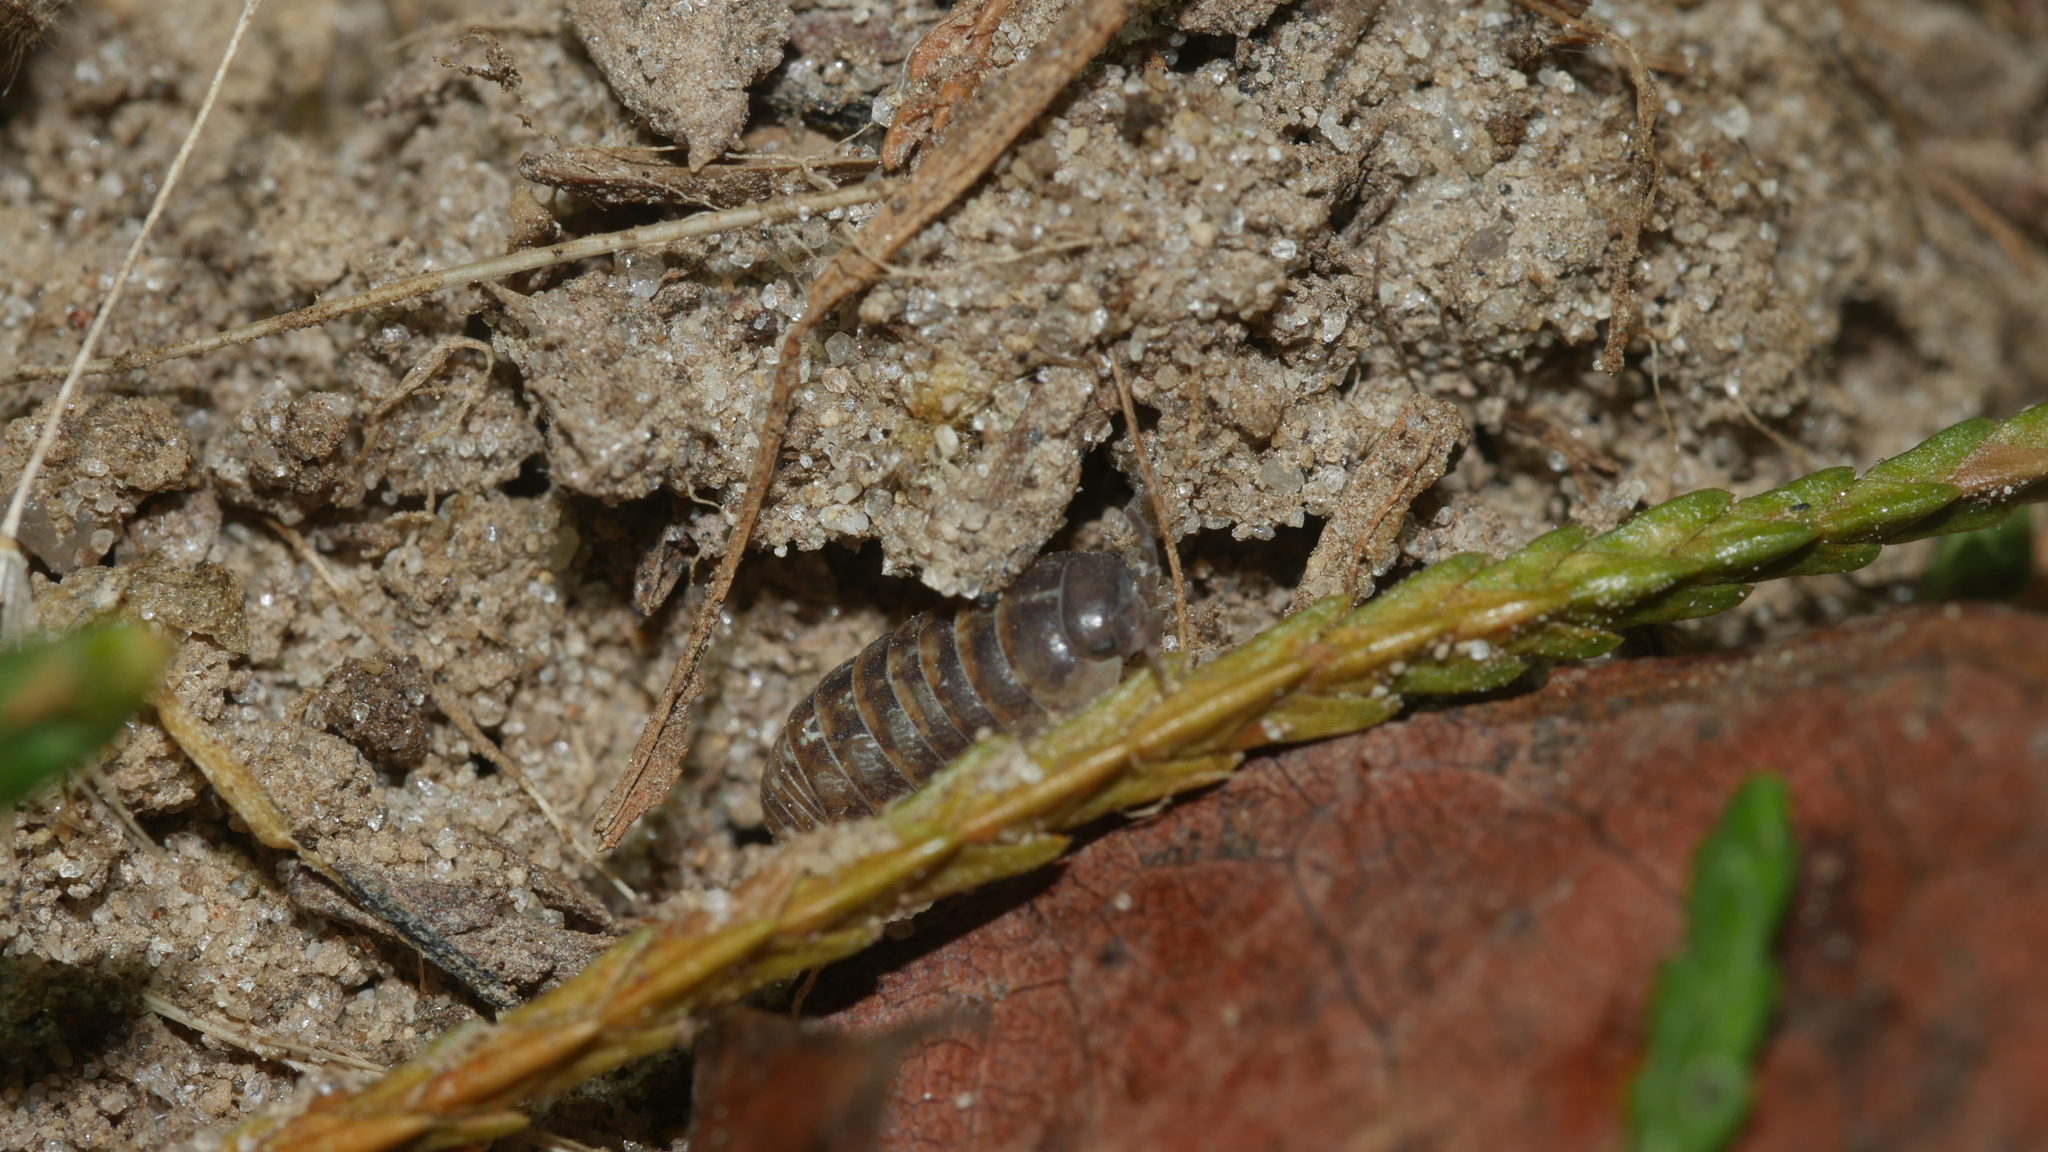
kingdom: Animalia
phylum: Arthropoda
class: Malacostraca
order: Isopoda
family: Armadillidiidae
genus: Armadillidium
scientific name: Armadillidium vulgare
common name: Common pill woodlouse
